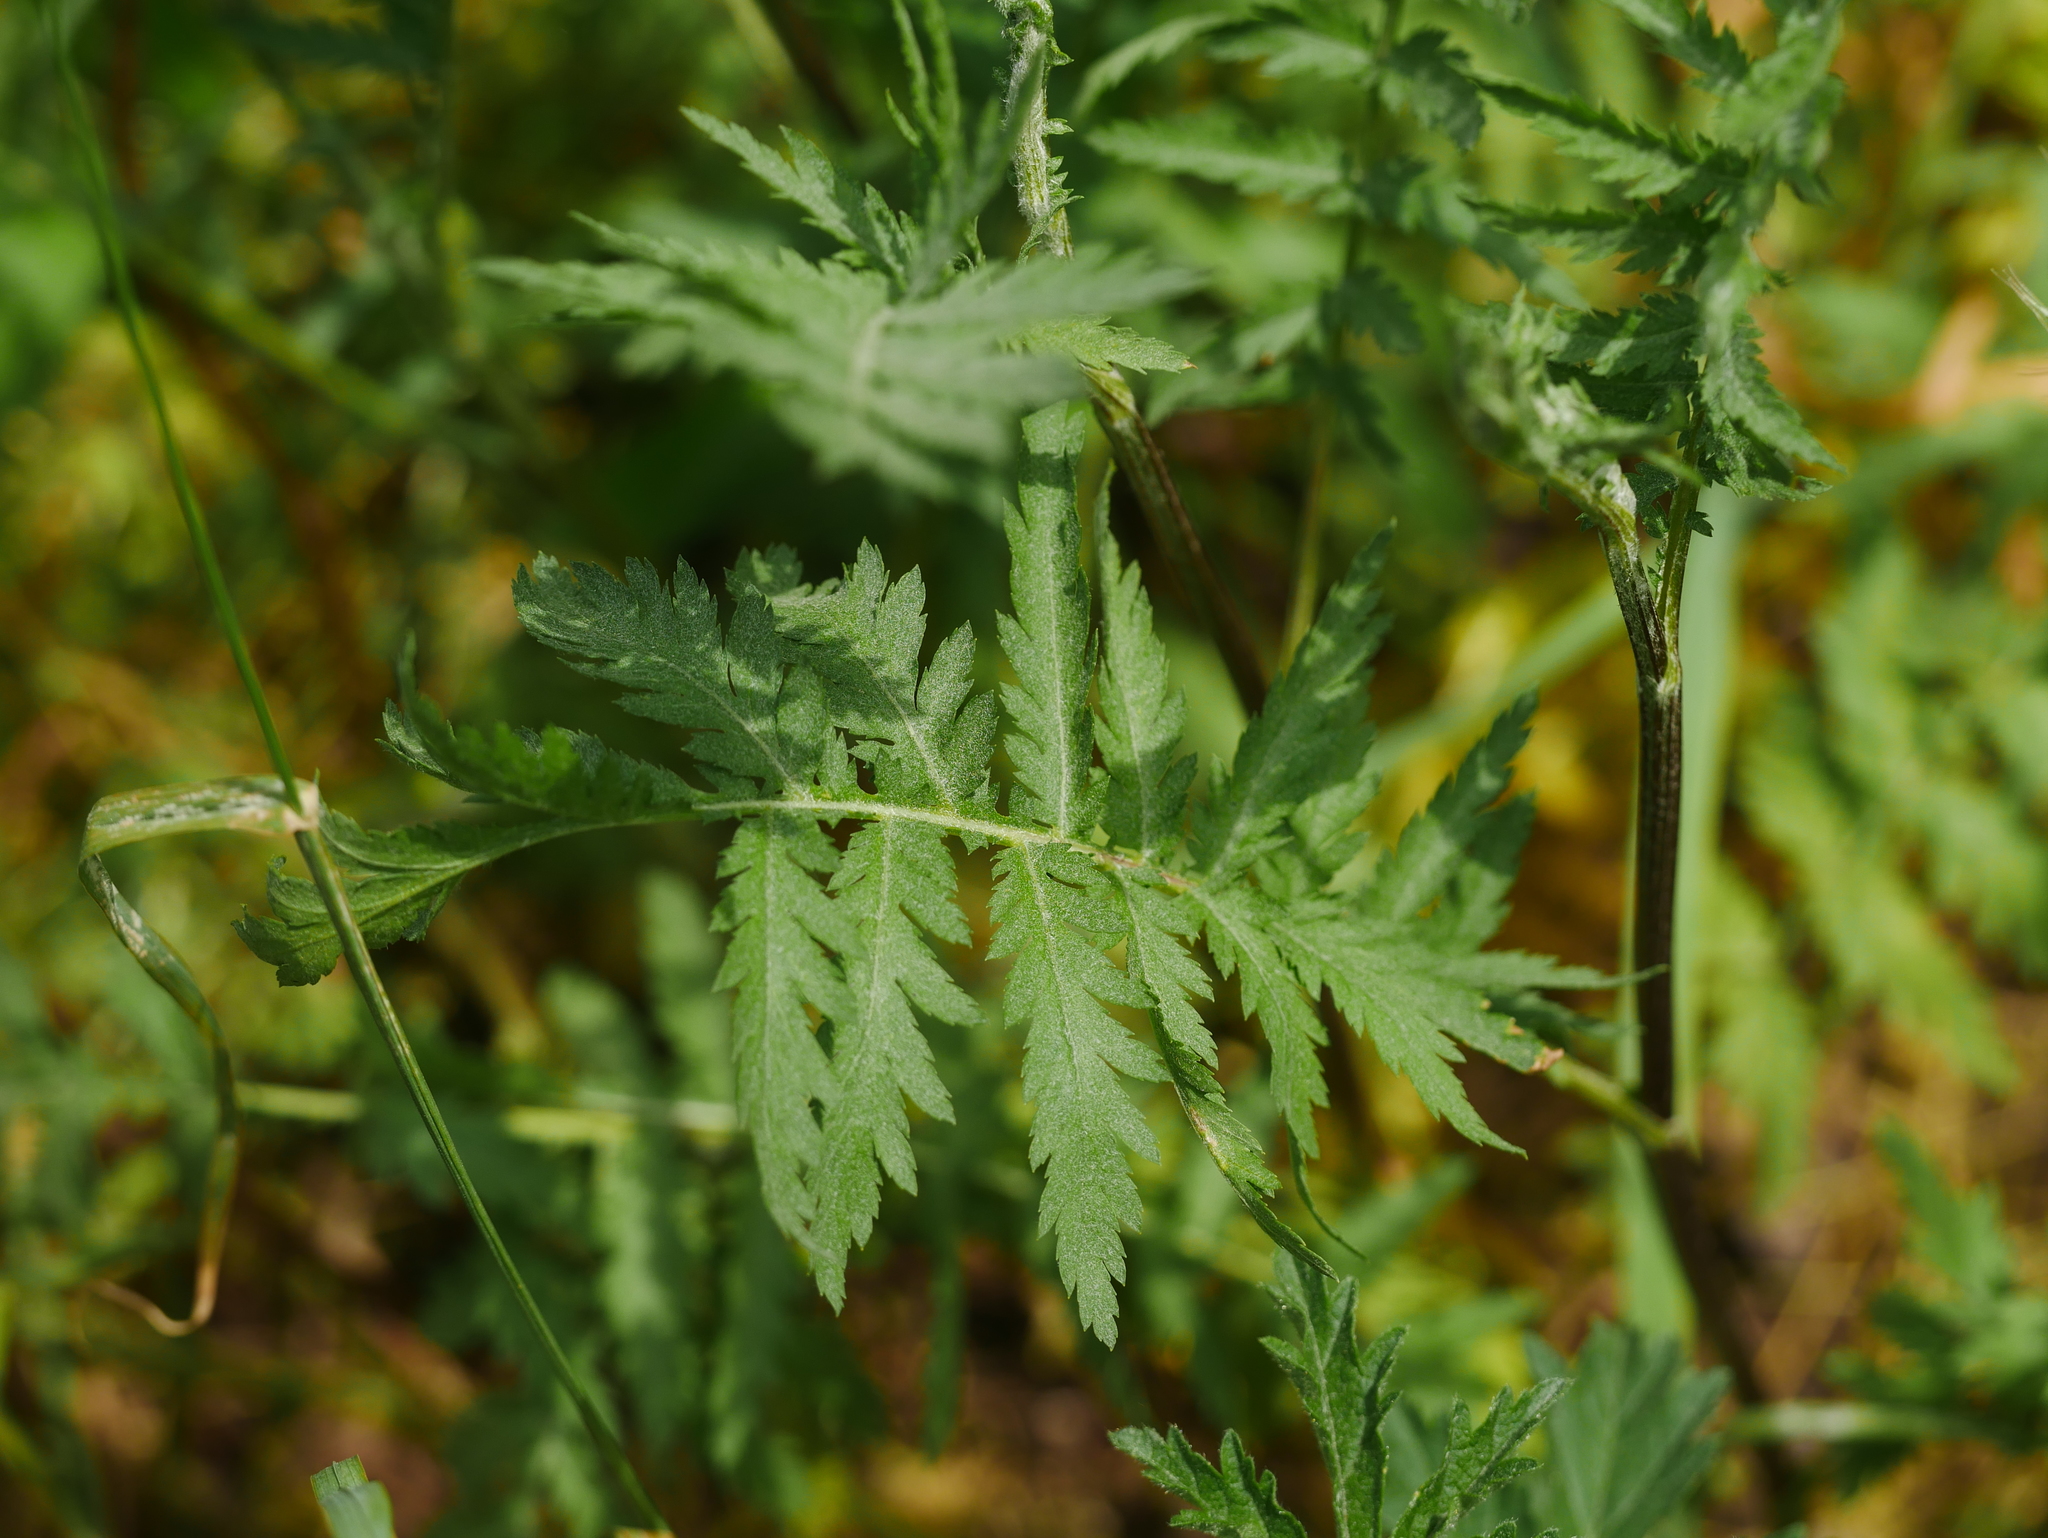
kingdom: Plantae
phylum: Tracheophyta
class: Magnoliopsida
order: Asterales
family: Asteraceae
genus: Tanacetum
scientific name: Tanacetum vulgare
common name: Common tansy
